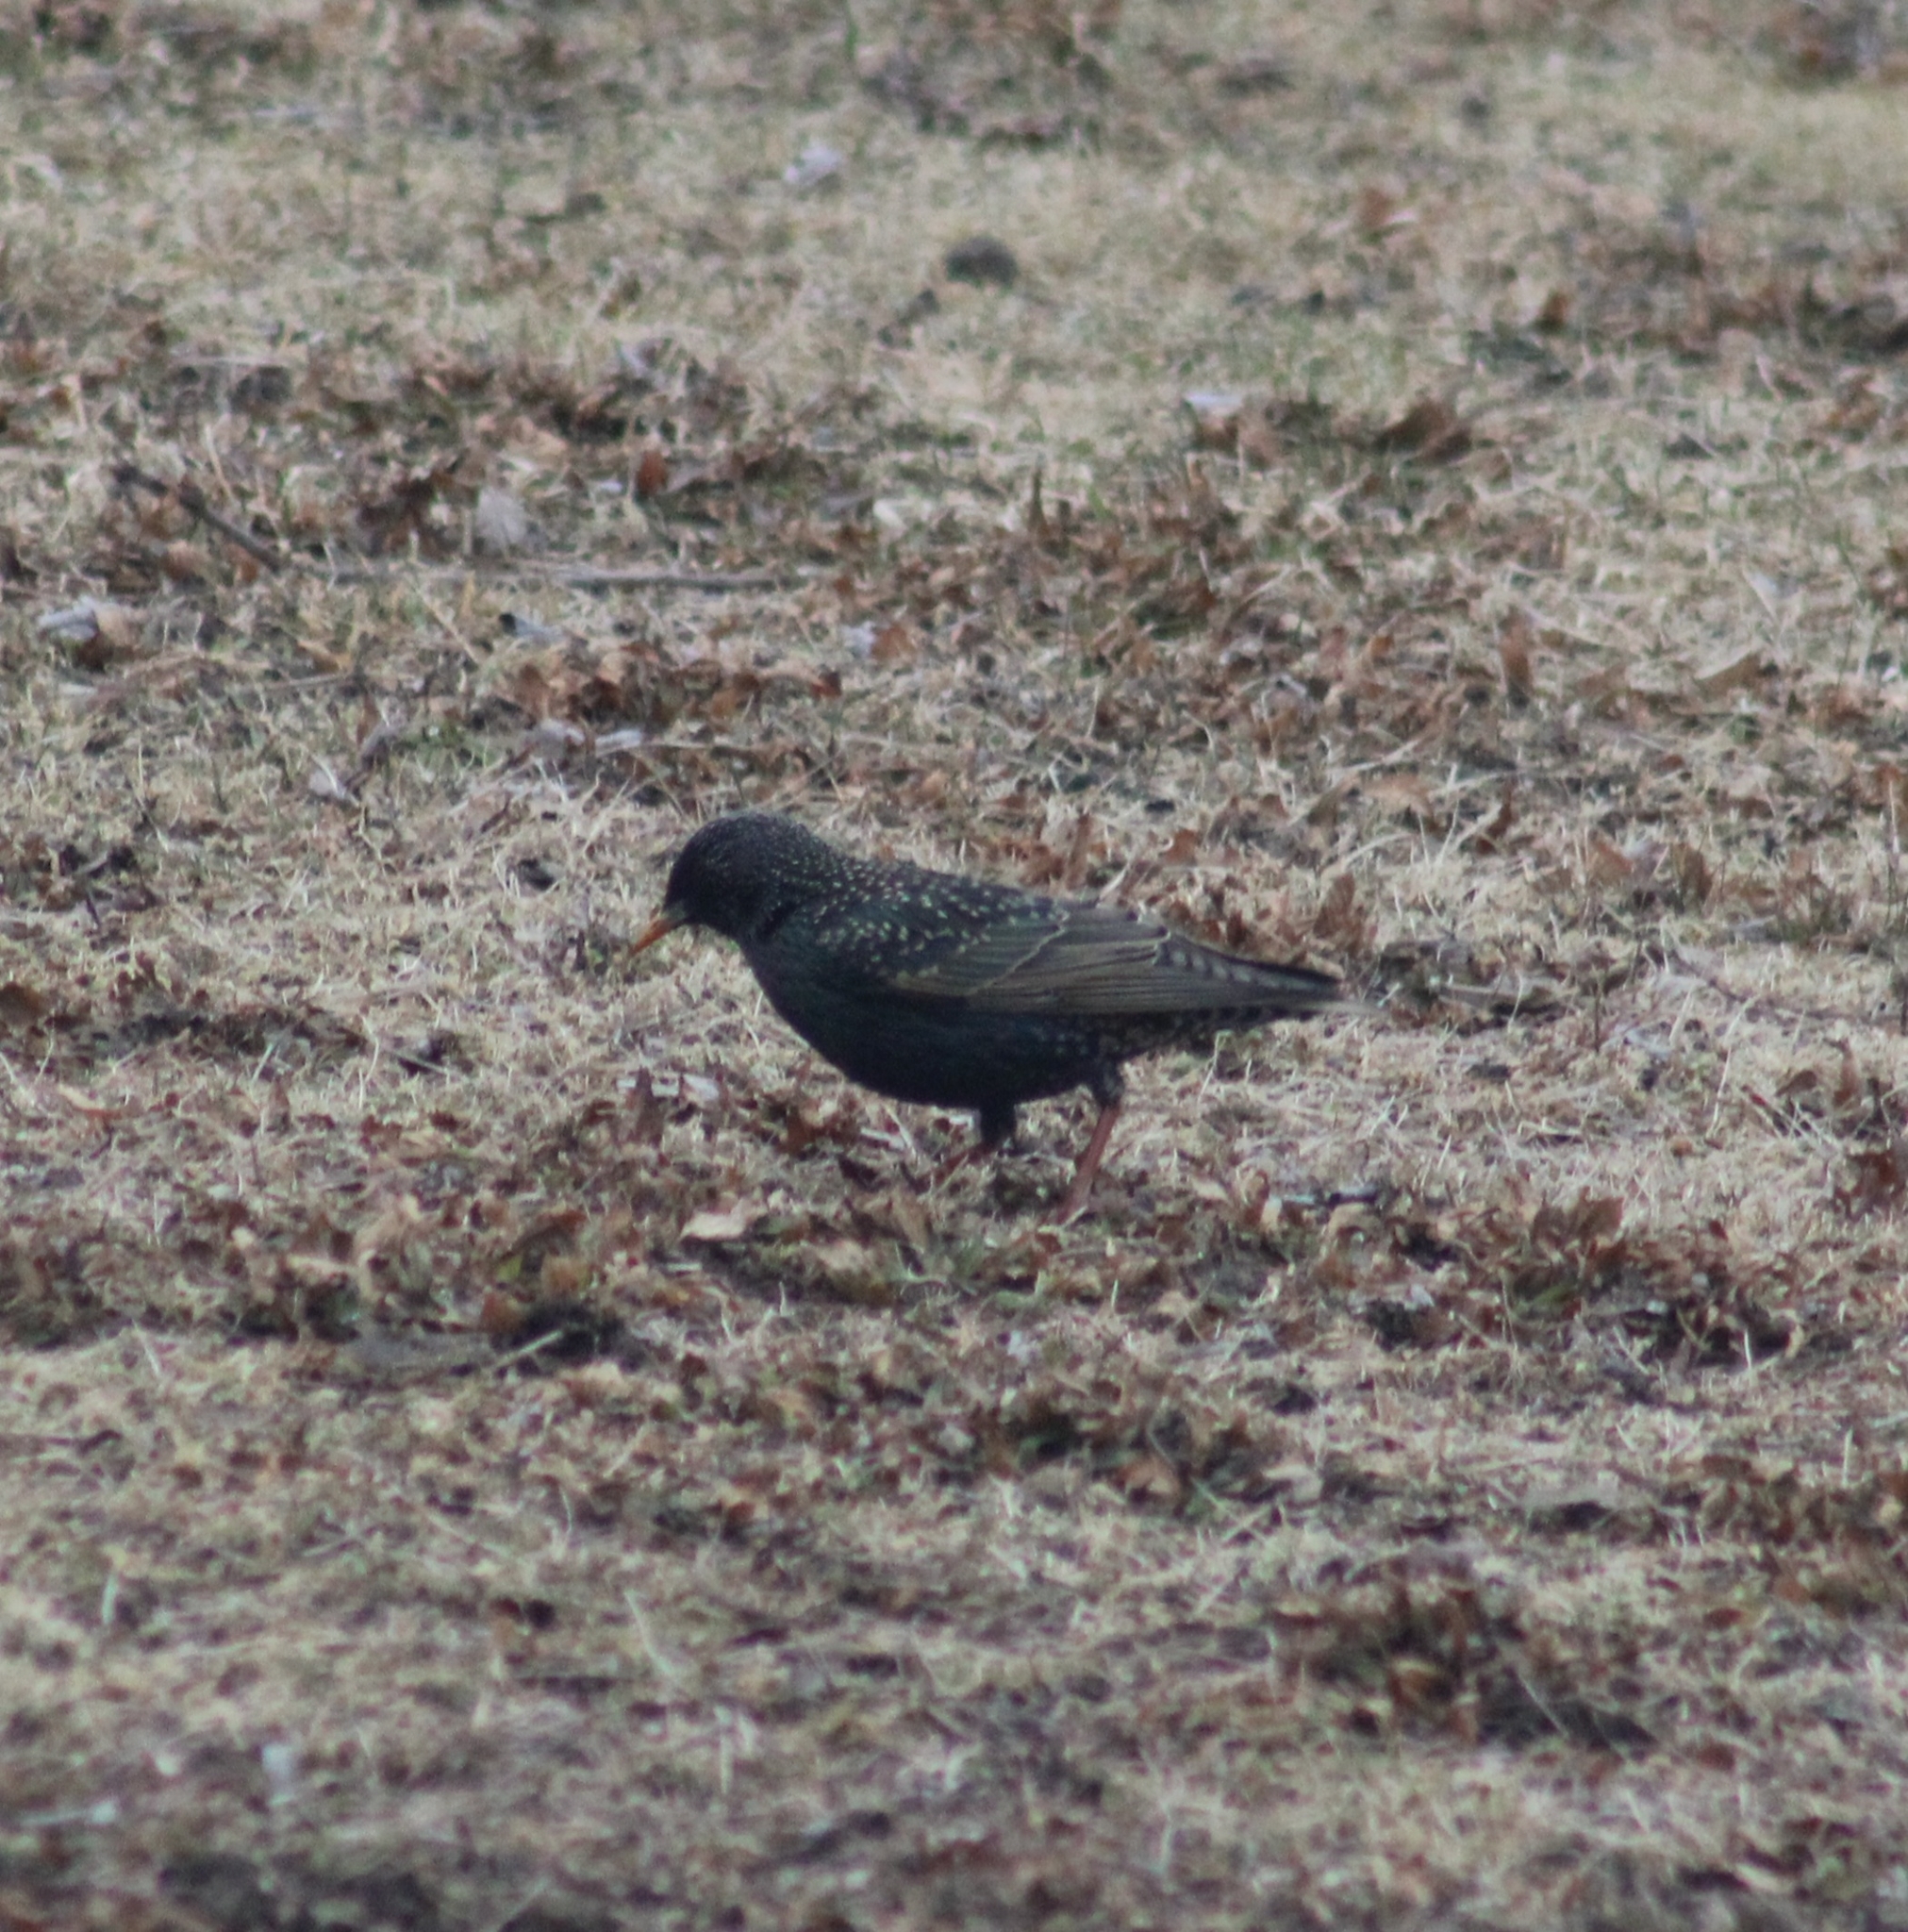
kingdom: Animalia
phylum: Chordata
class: Aves
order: Passeriformes
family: Sturnidae
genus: Sturnus
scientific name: Sturnus vulgaris
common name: Common starling
